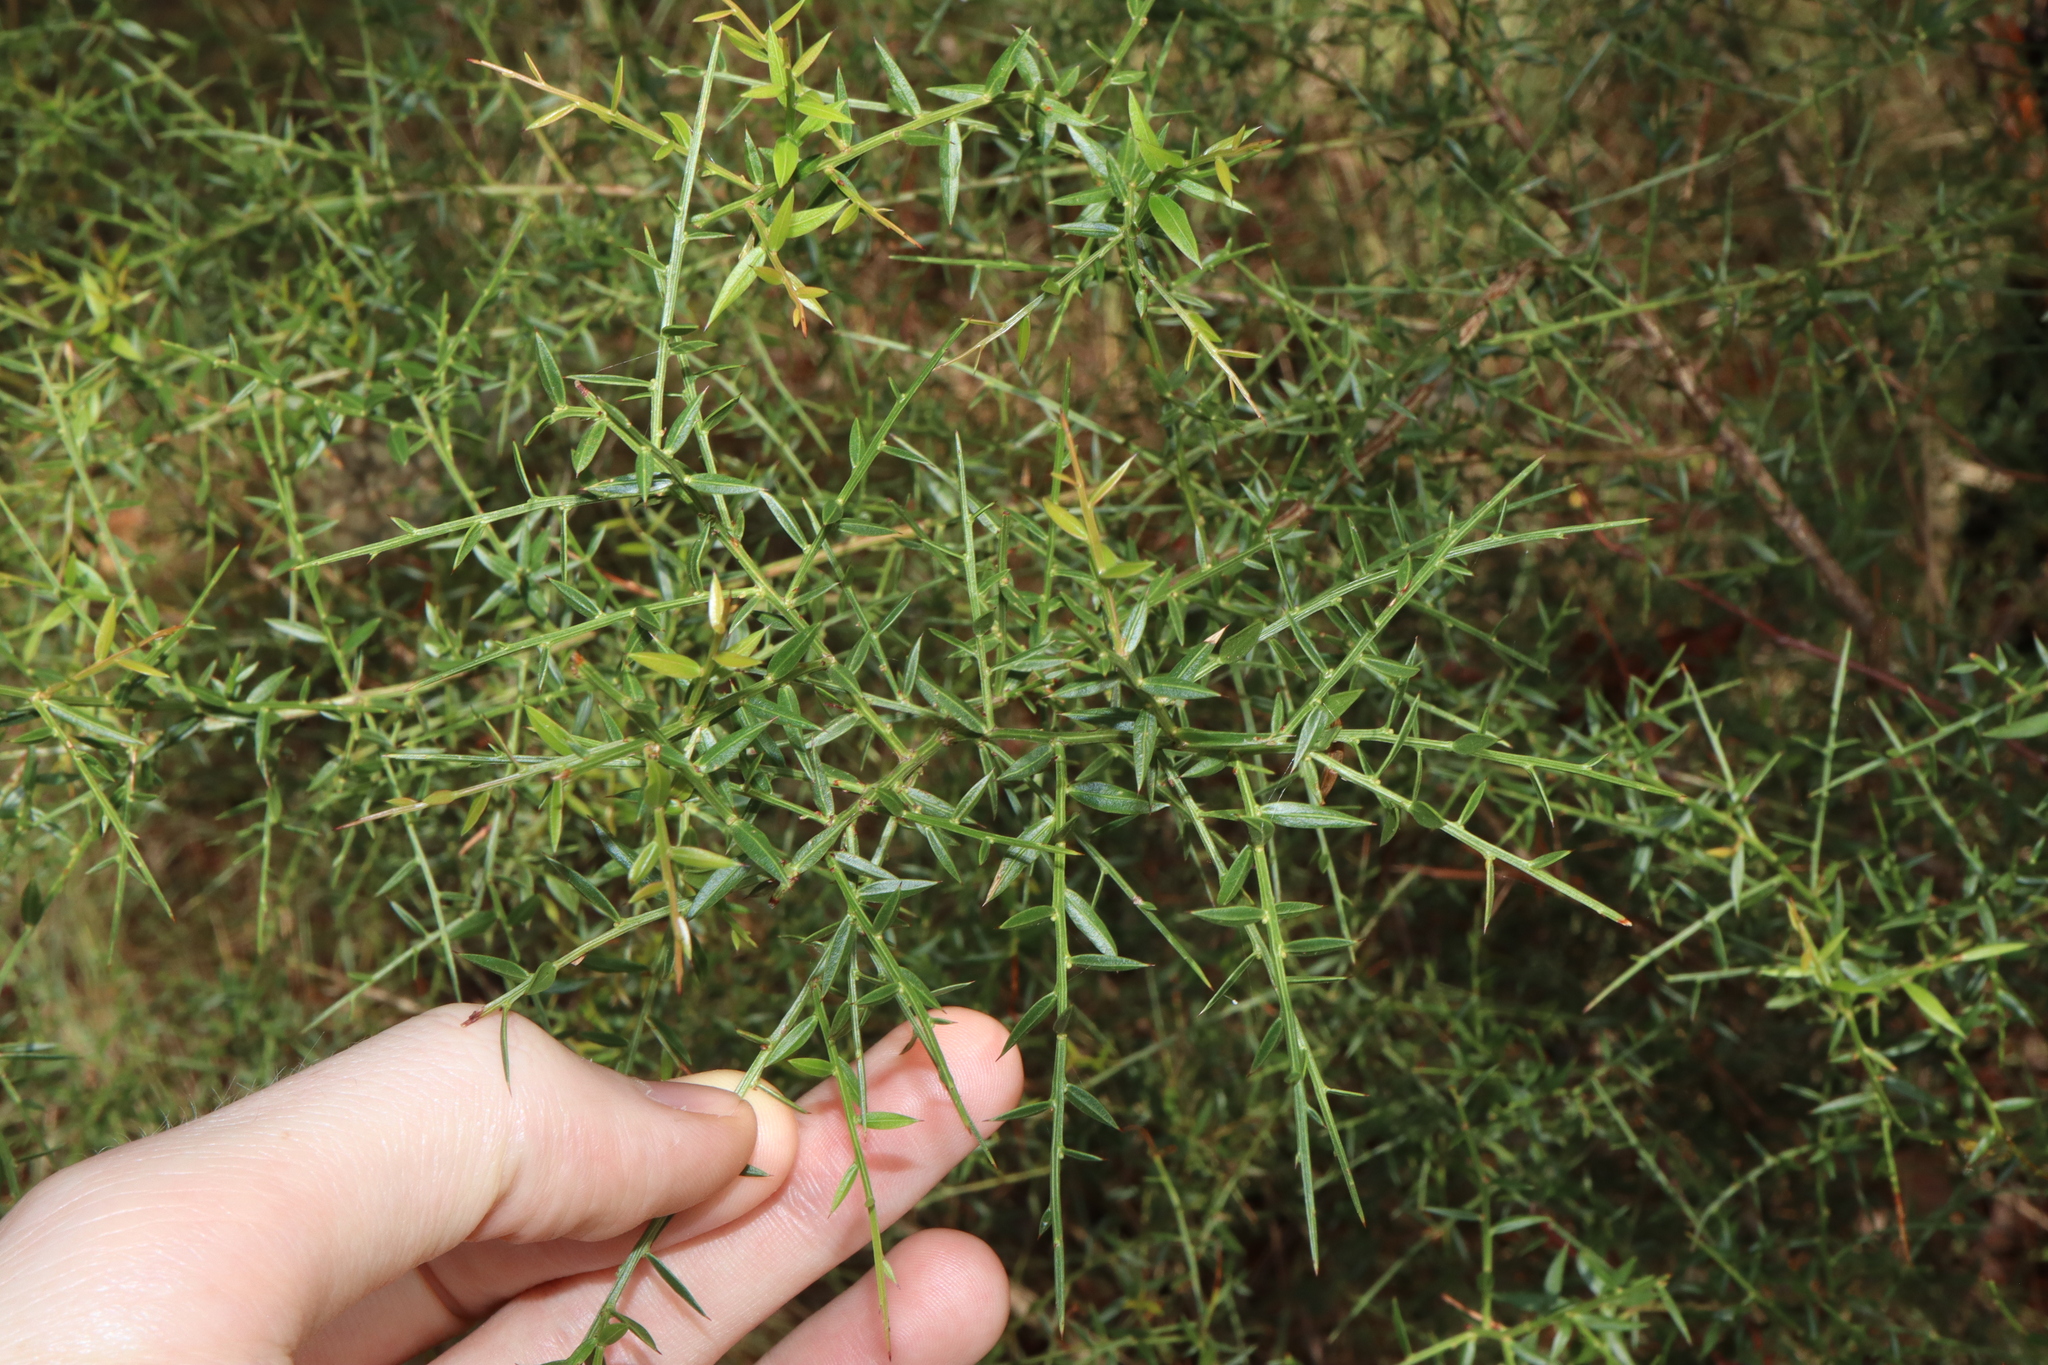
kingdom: Plantae
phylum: Tracheophyta
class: Magnoliopsida
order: Fabales
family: Fabaceae
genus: Daviesia
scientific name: Daviesia ulicifolia
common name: Gorse bitter-pea
